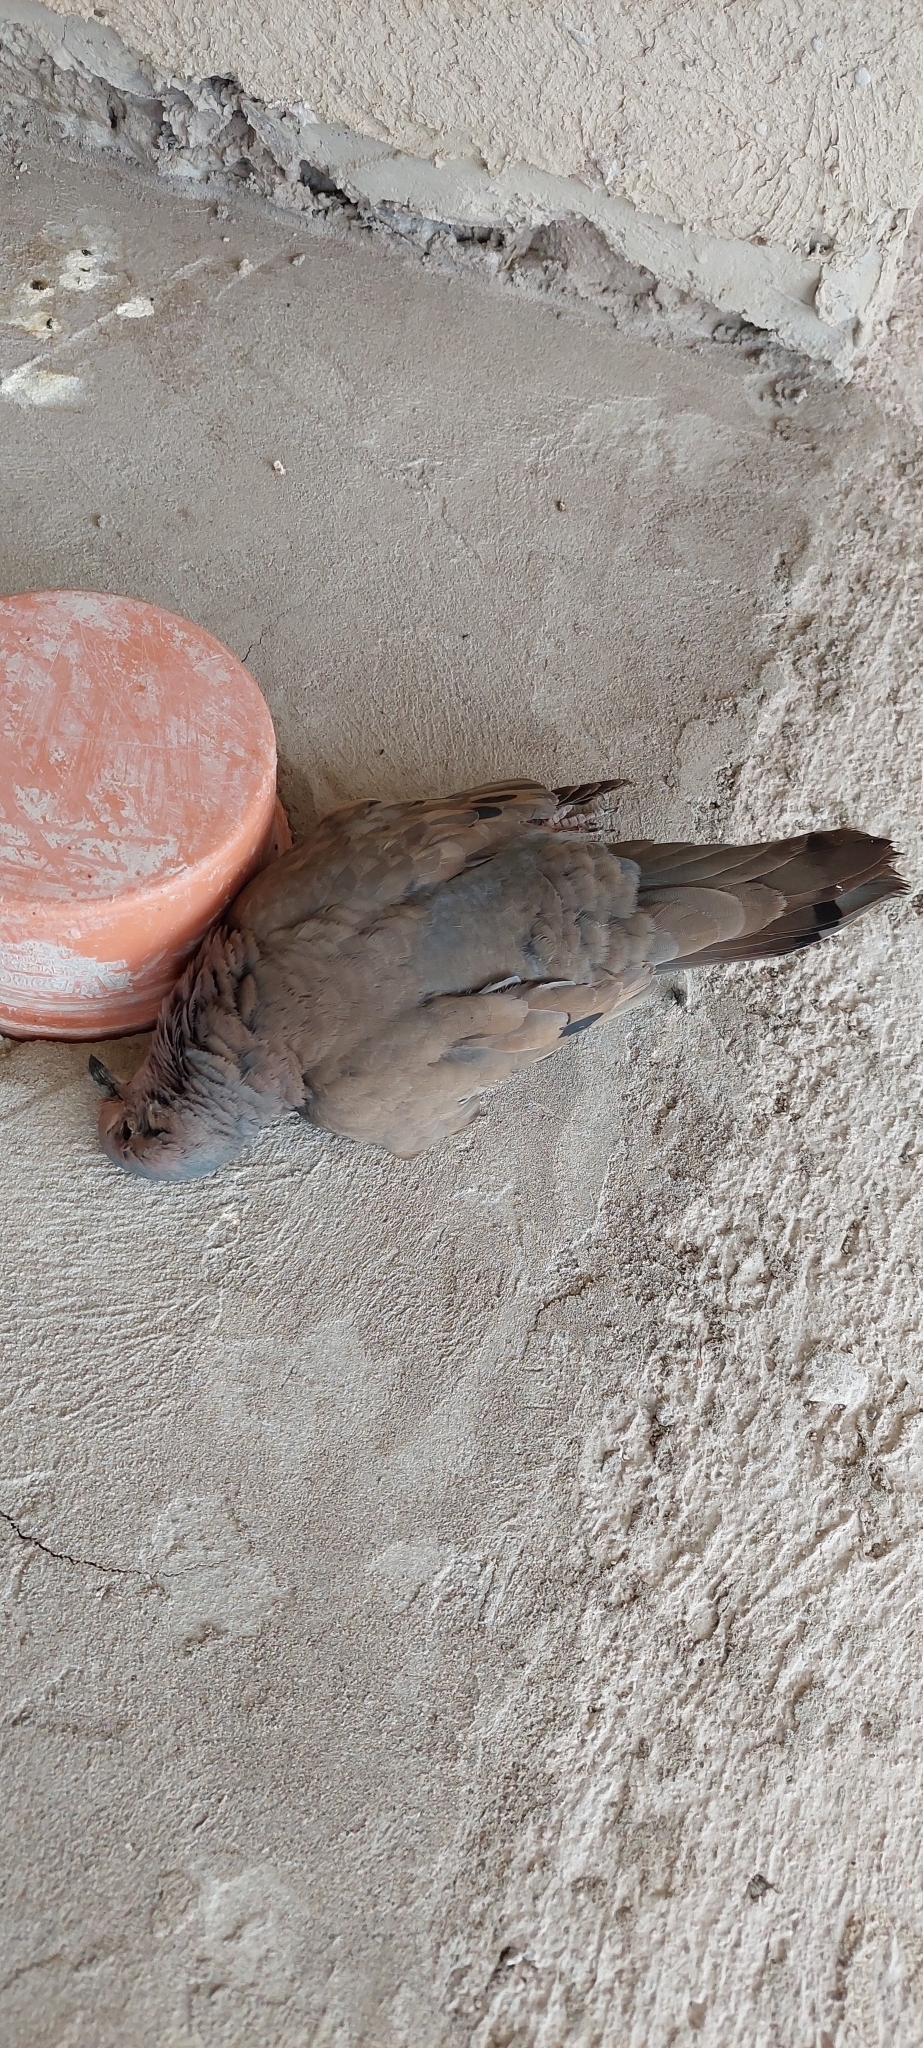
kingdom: Animalia
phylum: Chordata
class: Aves
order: Columbiformes
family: Columbidae
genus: Zenaida
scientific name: Zenaida auriculata
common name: Eared dove
